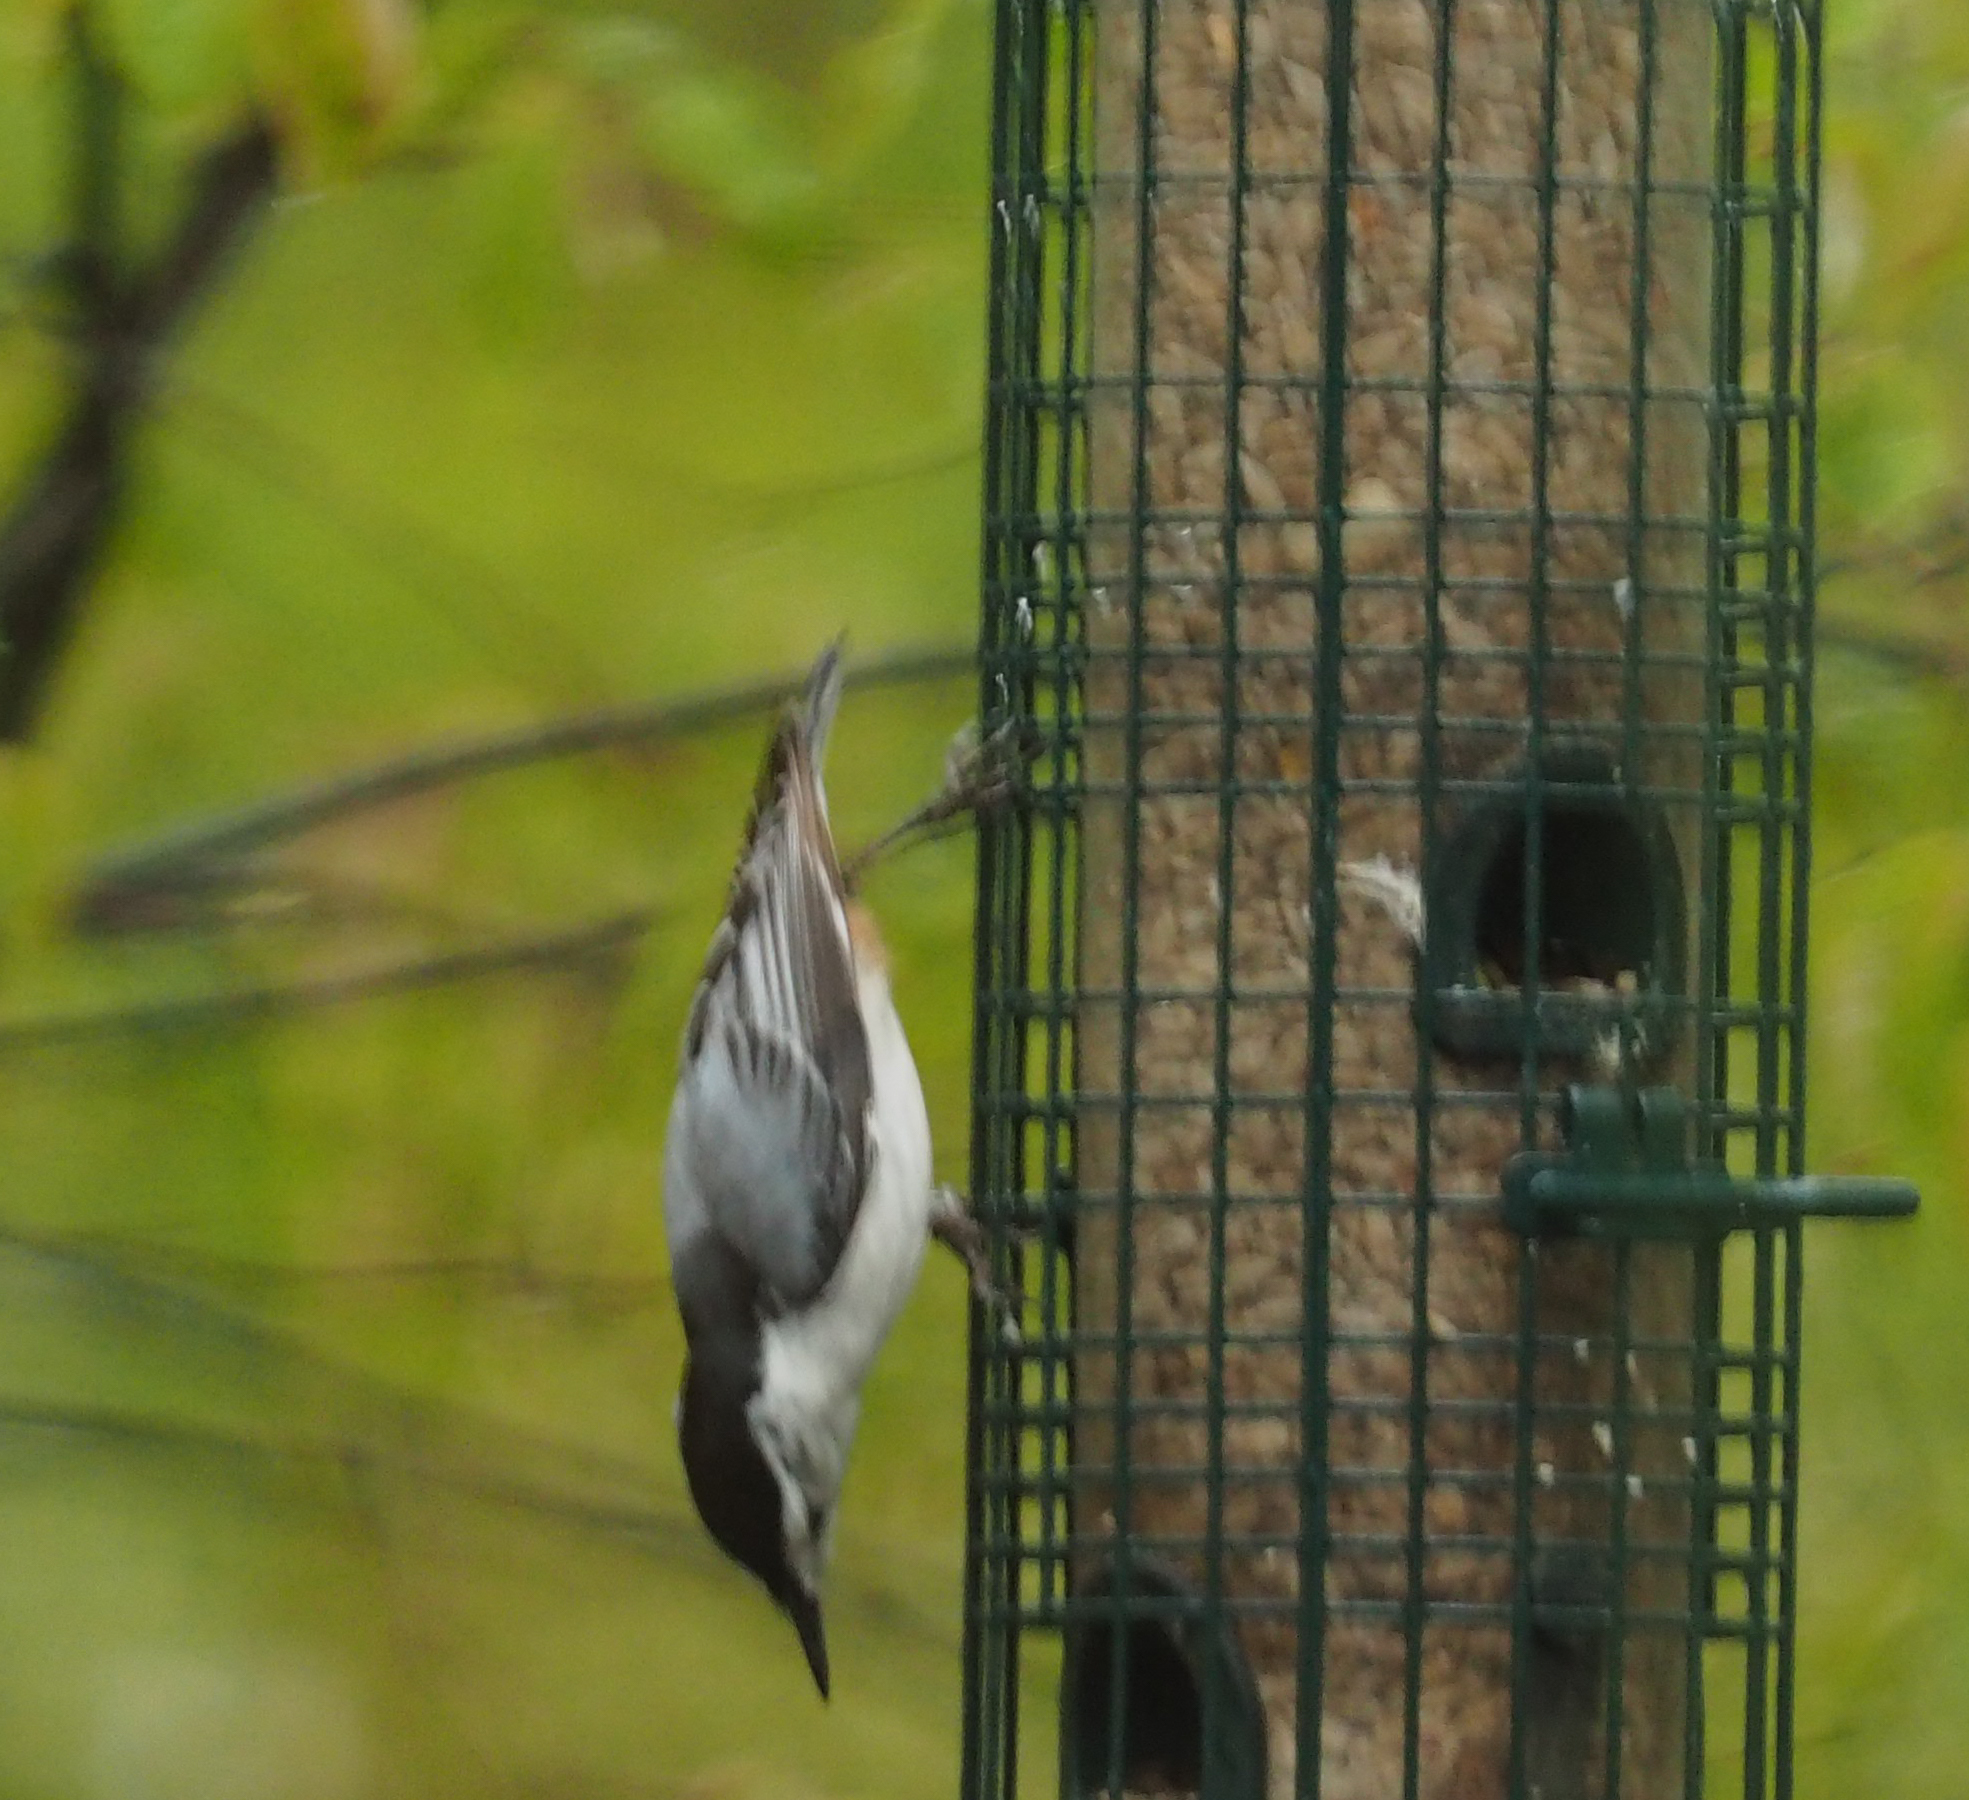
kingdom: Animalia
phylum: Chordata
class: Aves
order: Passeriformes
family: Sittidae
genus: Sitta
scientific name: Sitta carolinensis
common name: White-breasted nuthatch
